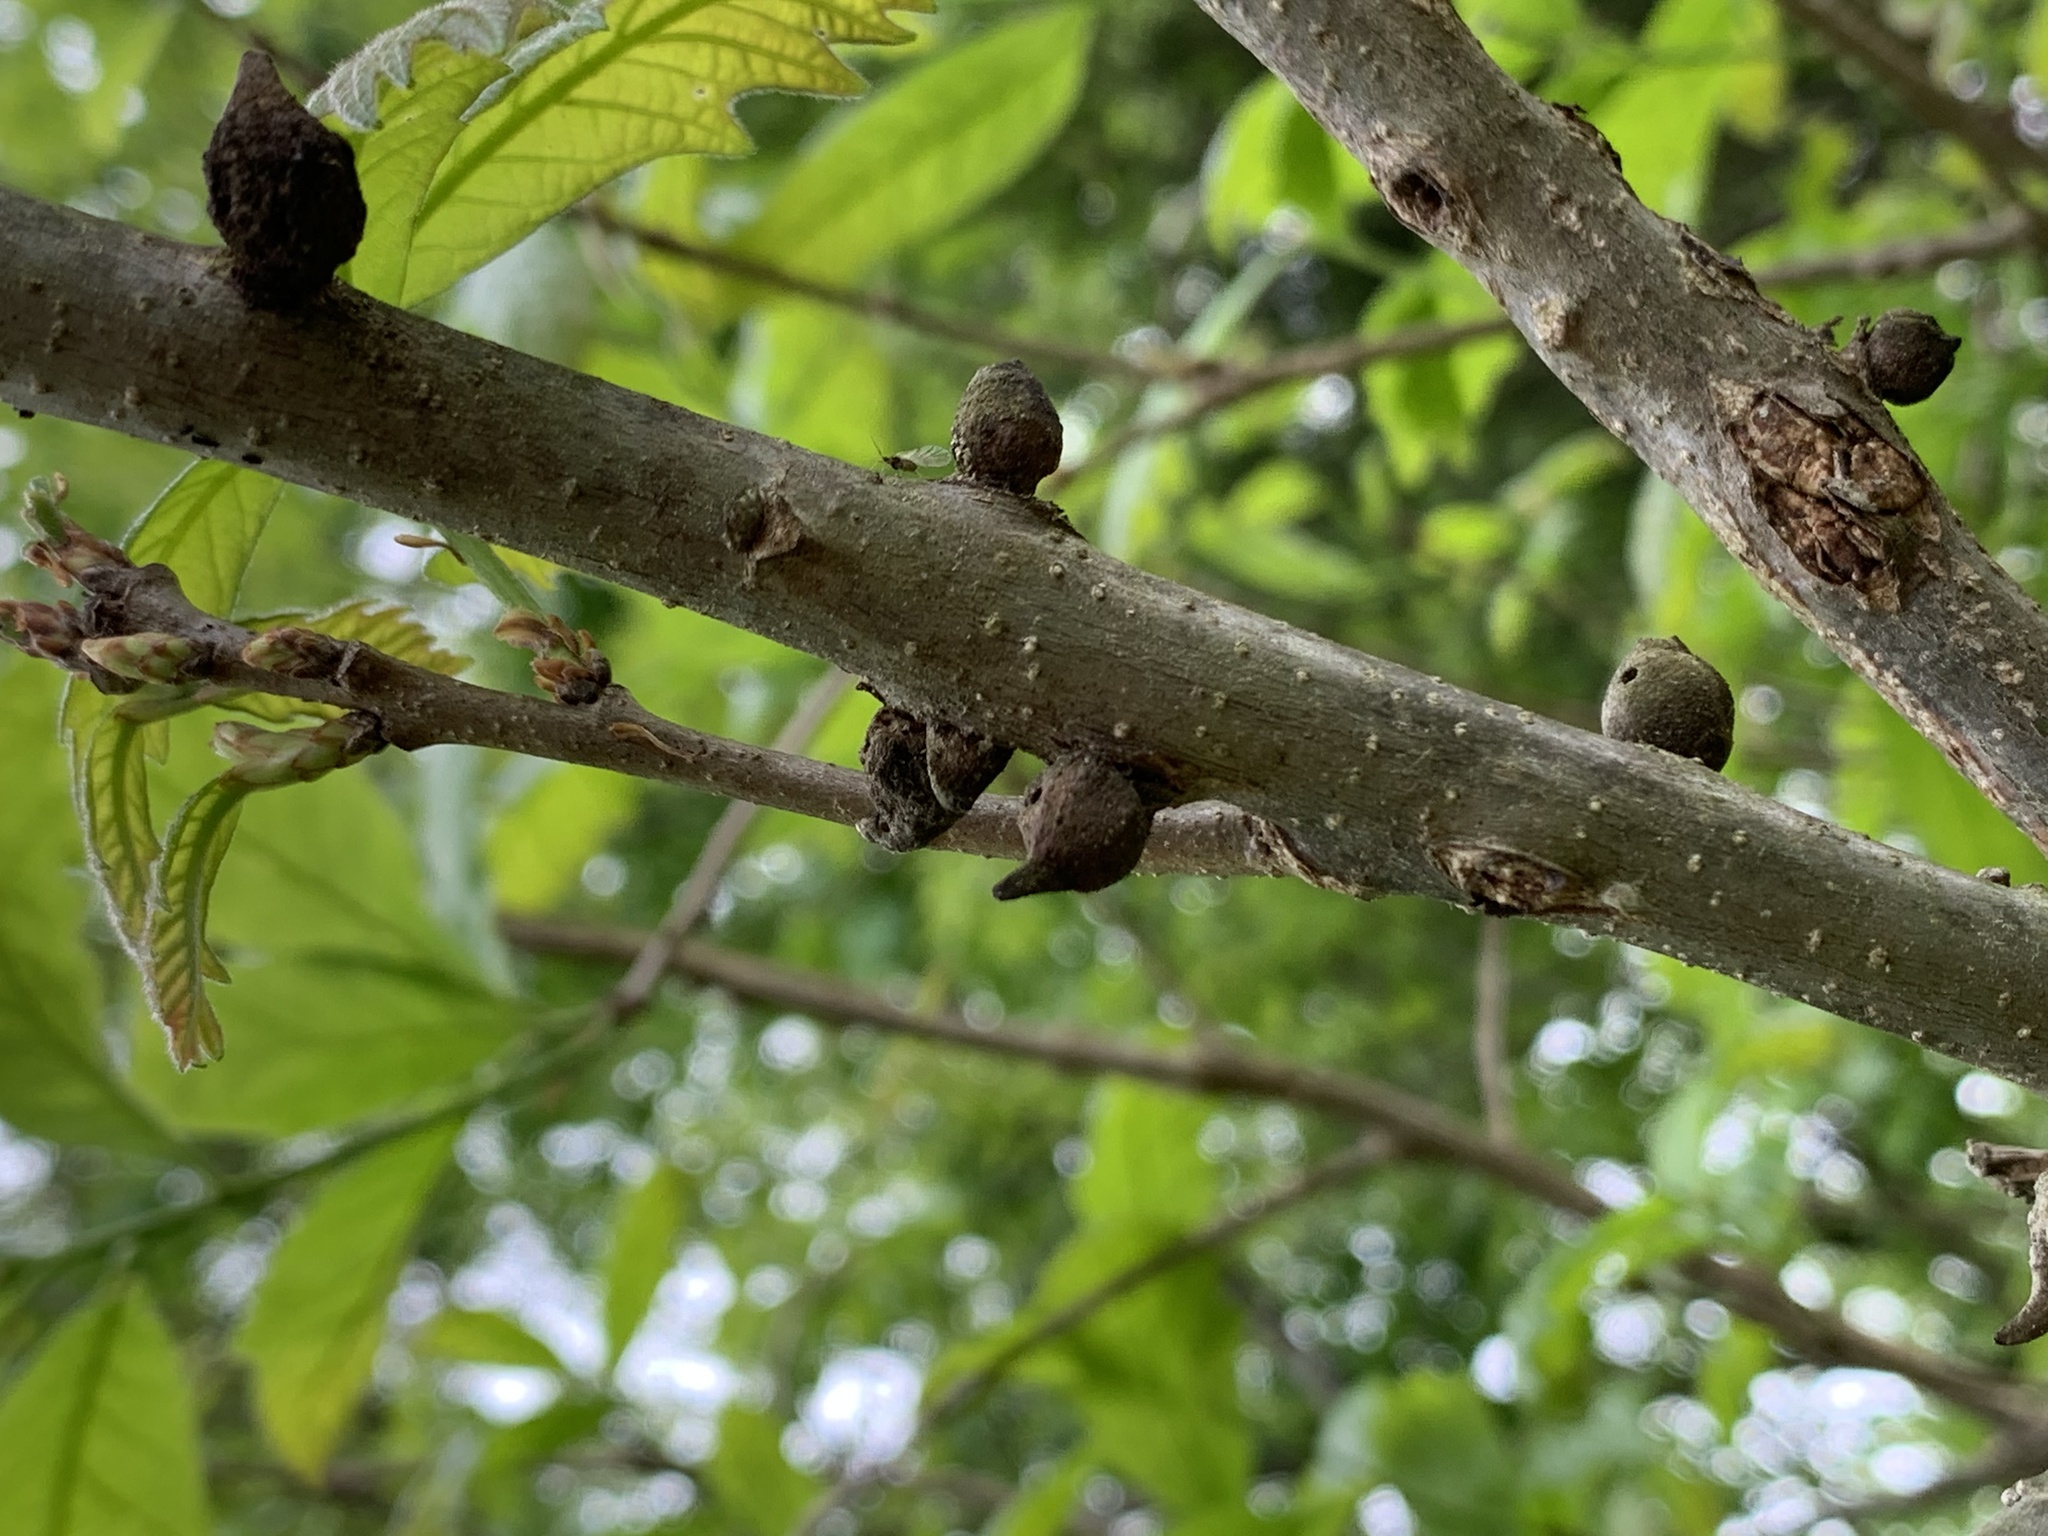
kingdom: Animalia
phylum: Arthropoda
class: Insecta
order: Hymenoptera
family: Cynipidae
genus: Disholcaspis
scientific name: Disholcaspis
